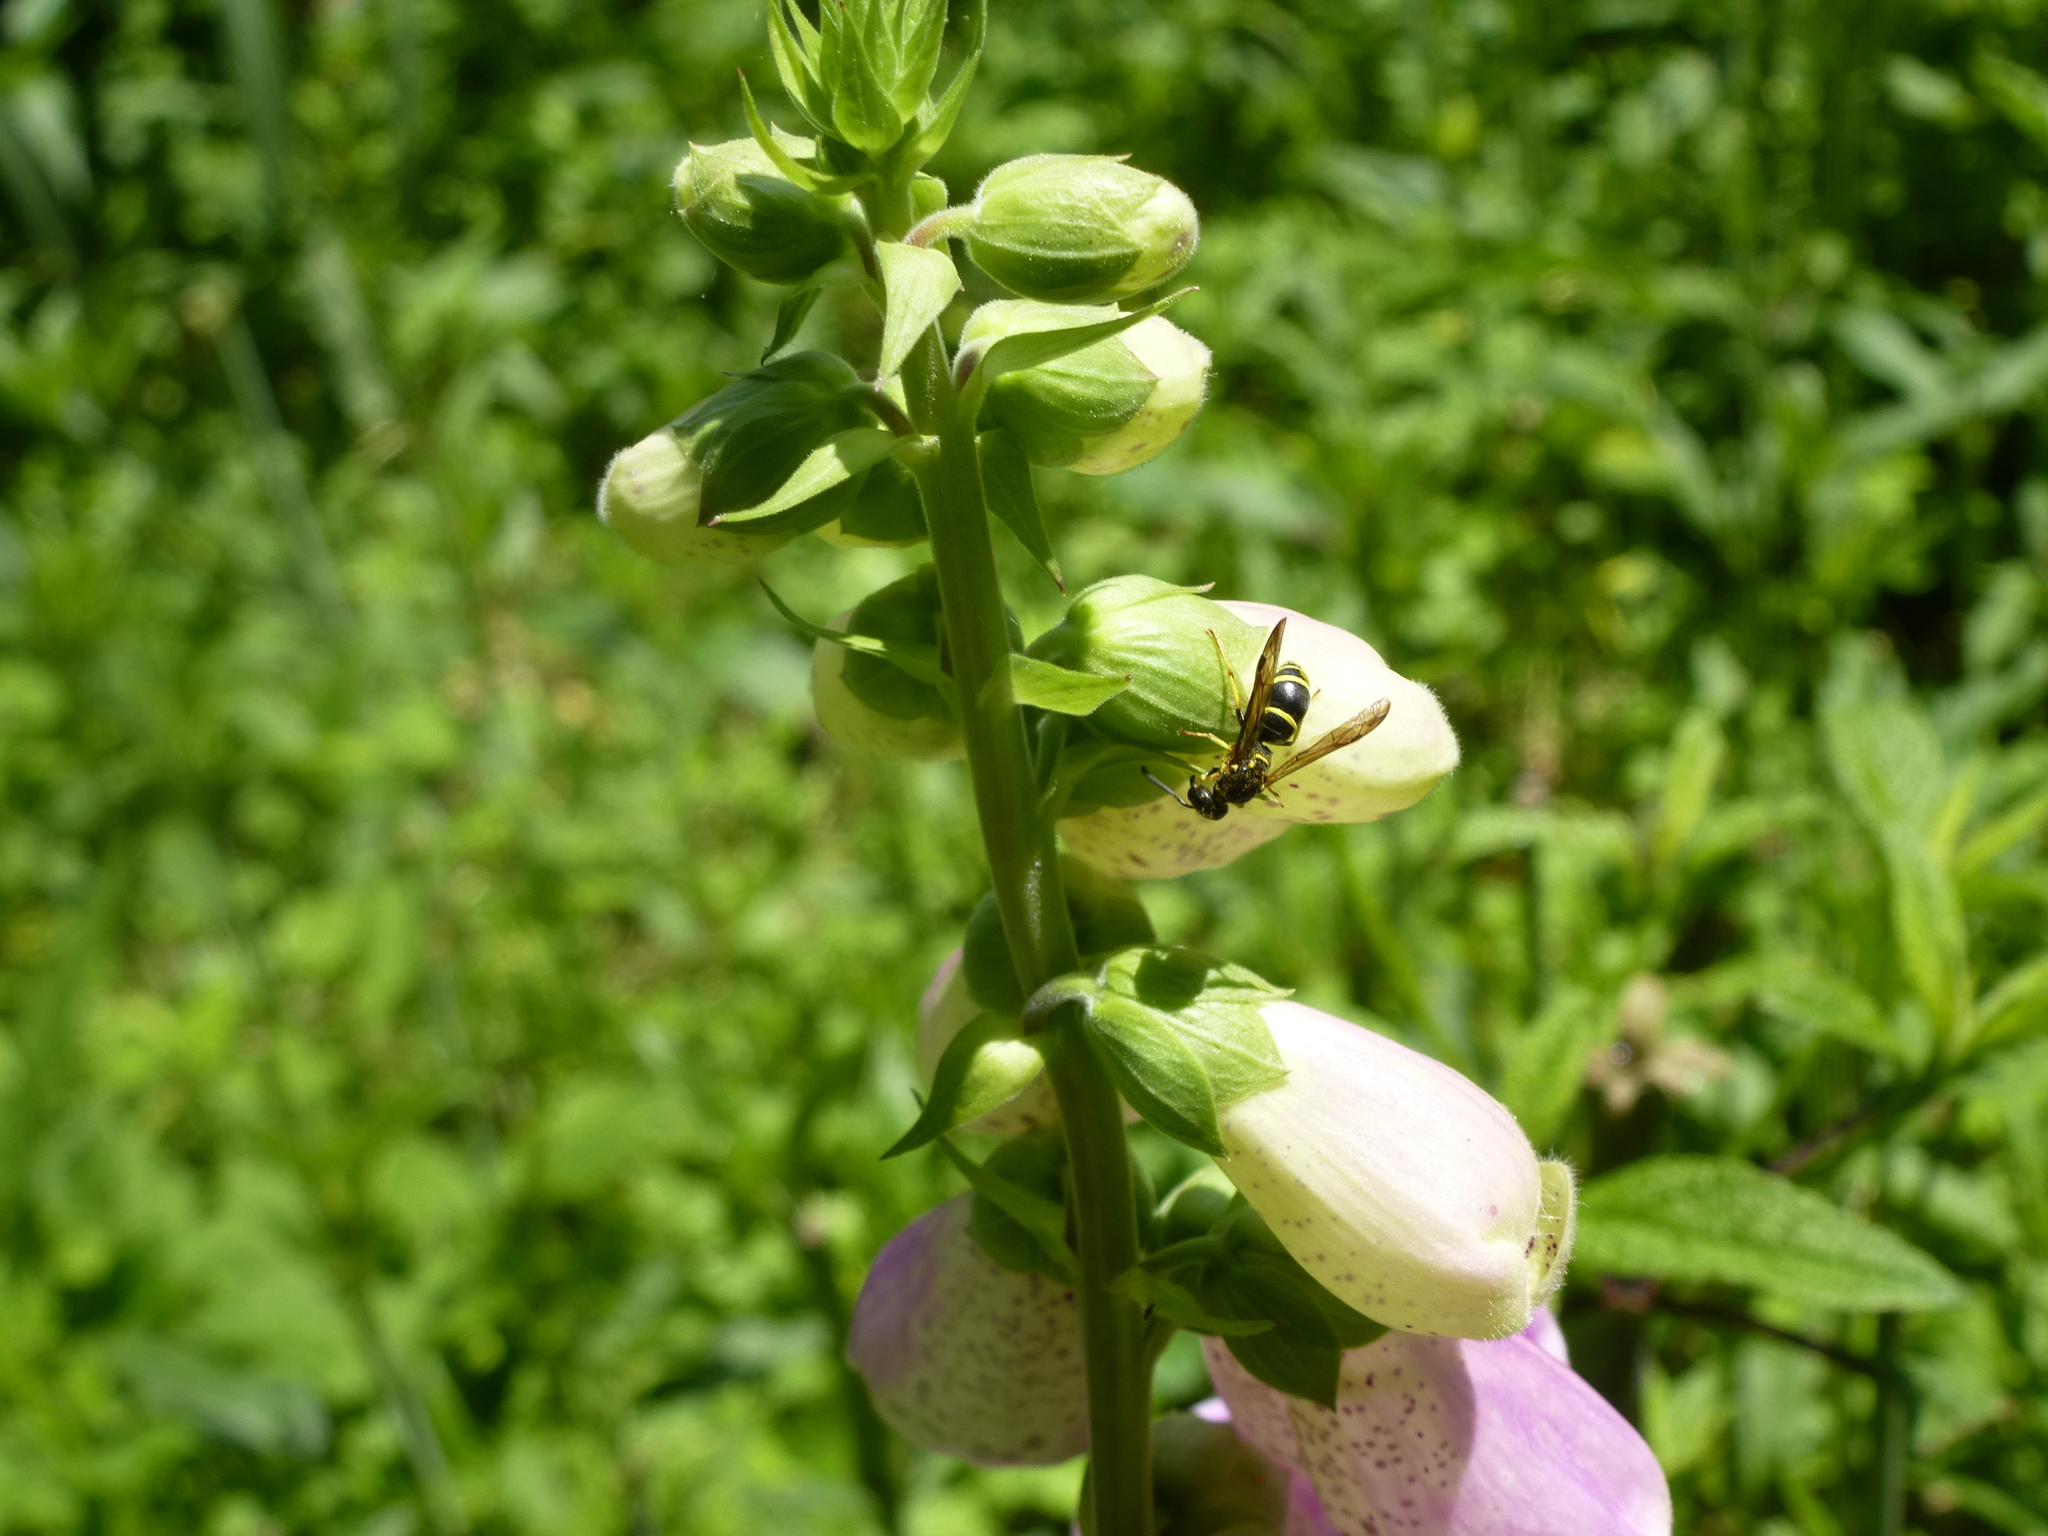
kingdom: Animalia
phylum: Arthropoda
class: Insecta
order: Hymenoptera
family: Vespidae
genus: Ancistrocerus
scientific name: Ancistrocerus adiabatus
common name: Bramble mason wasp
